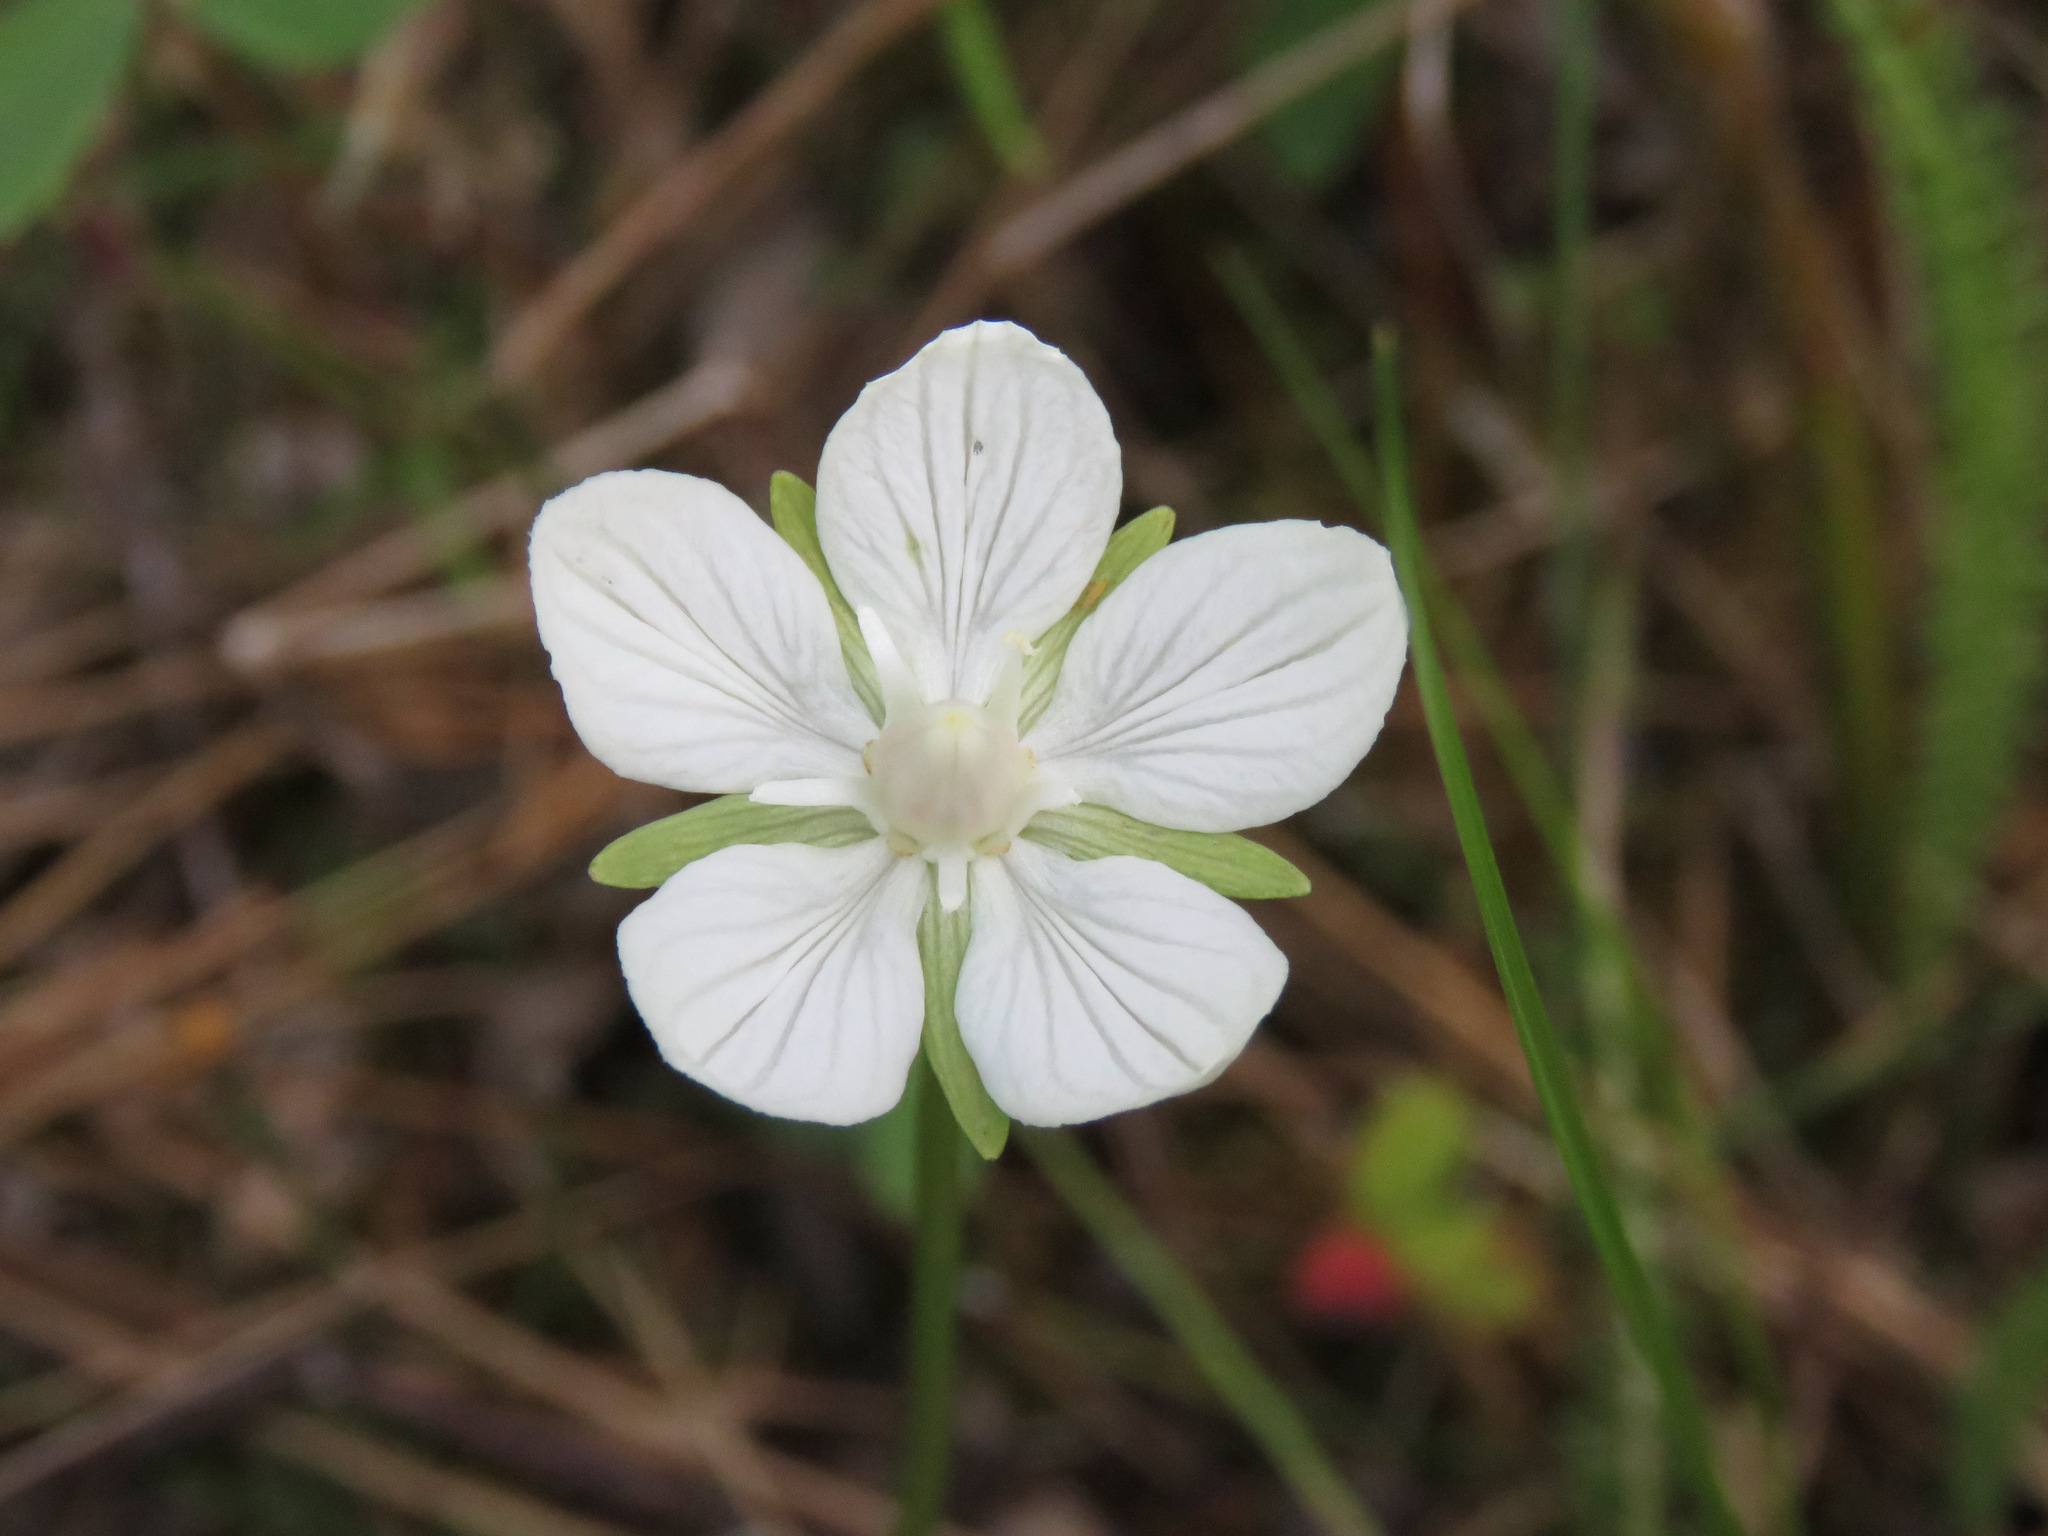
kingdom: Plantae
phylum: Tracheophyta
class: Magnoliopsida
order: Celastrales
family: Parnassiaceae
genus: Parnassia
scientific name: Parnassia palustris
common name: Grass-of-parnassus
